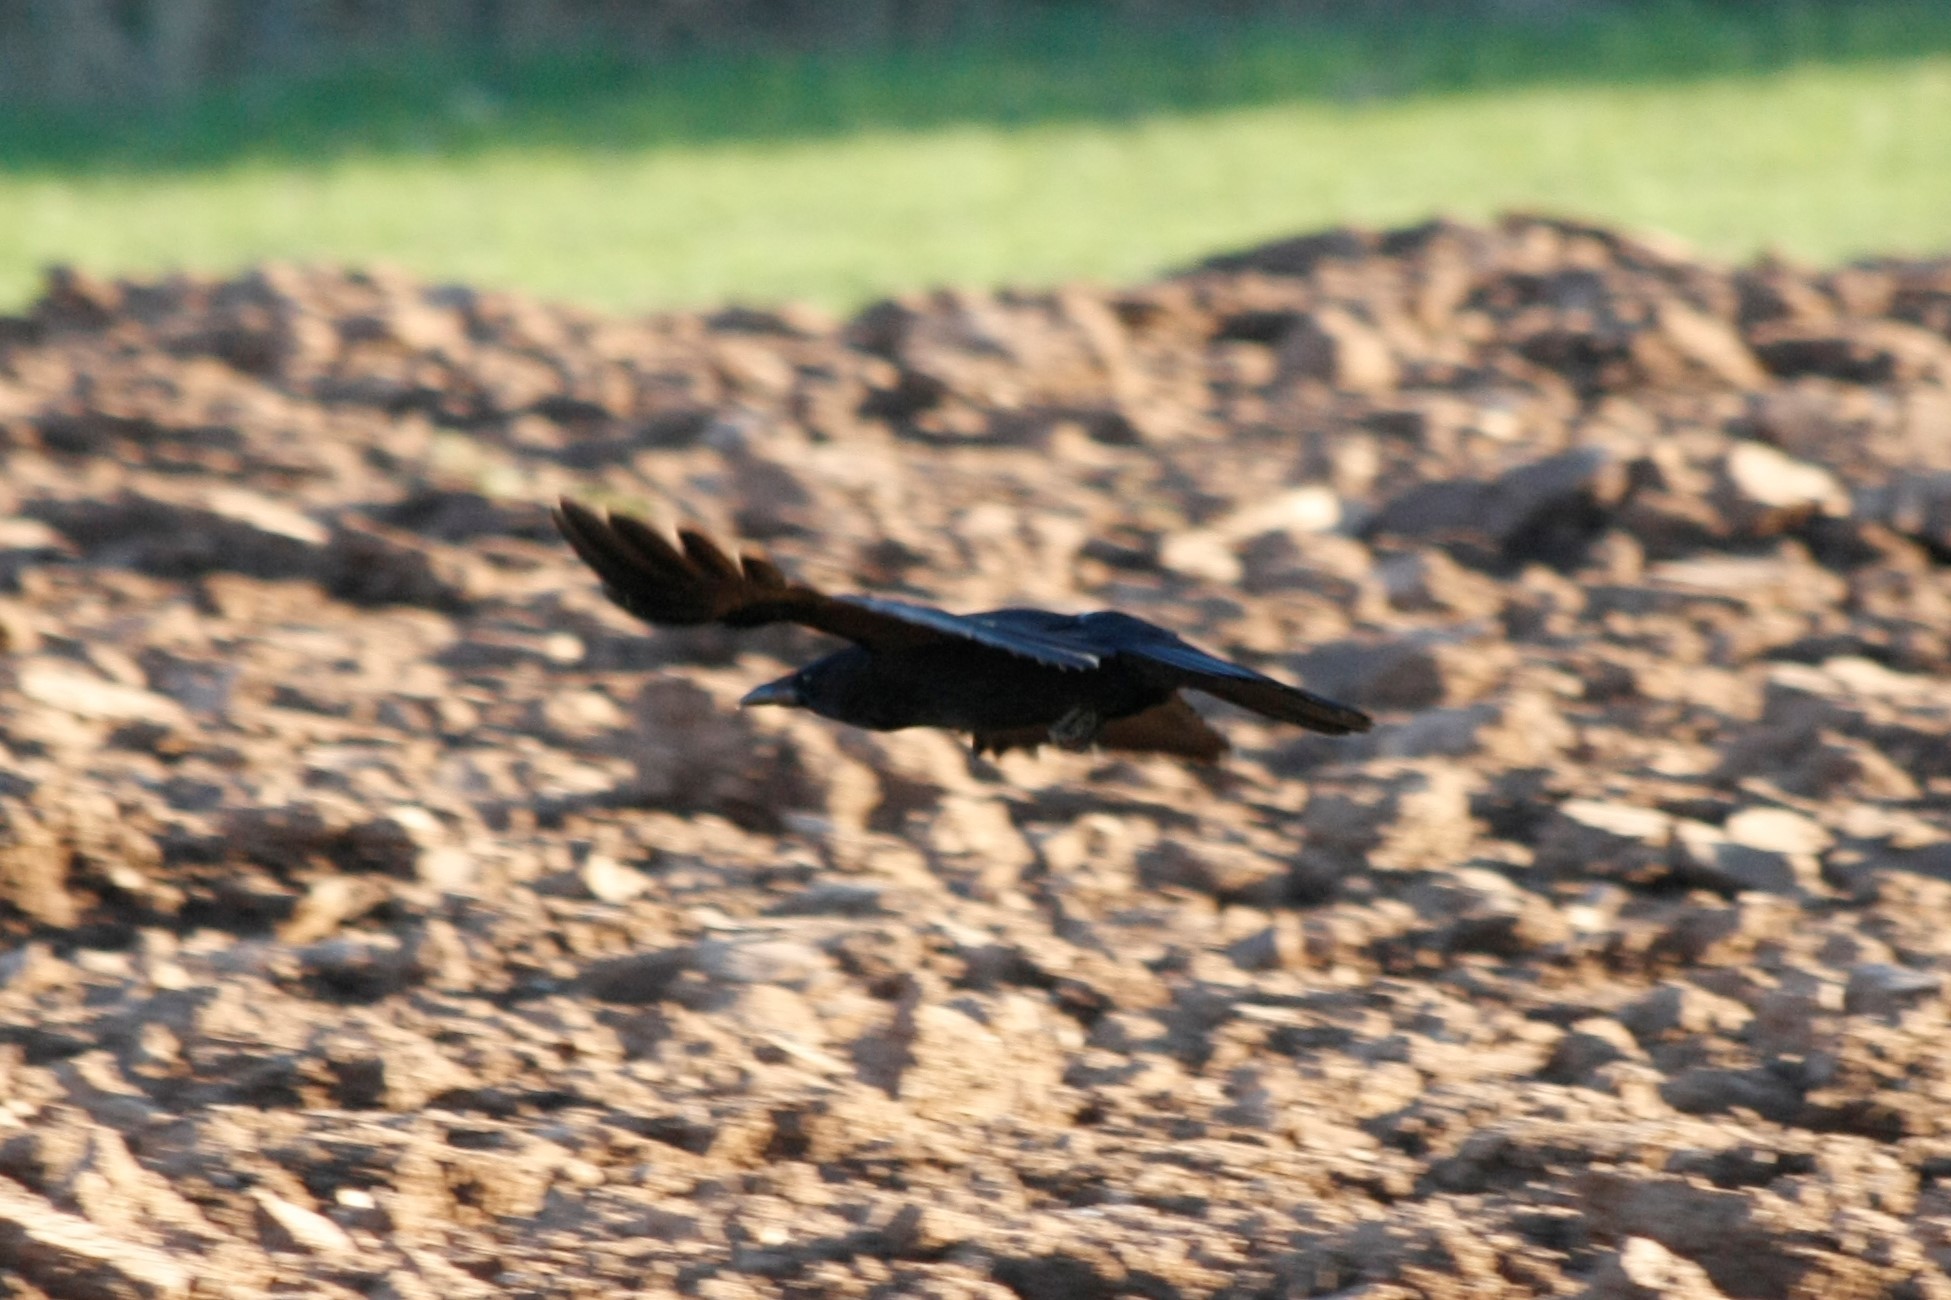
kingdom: Animalia
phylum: Chordata
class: Aves
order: Passeriformes
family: Corvidae
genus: Corvus
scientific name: Corvus corone
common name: Carrion crow
